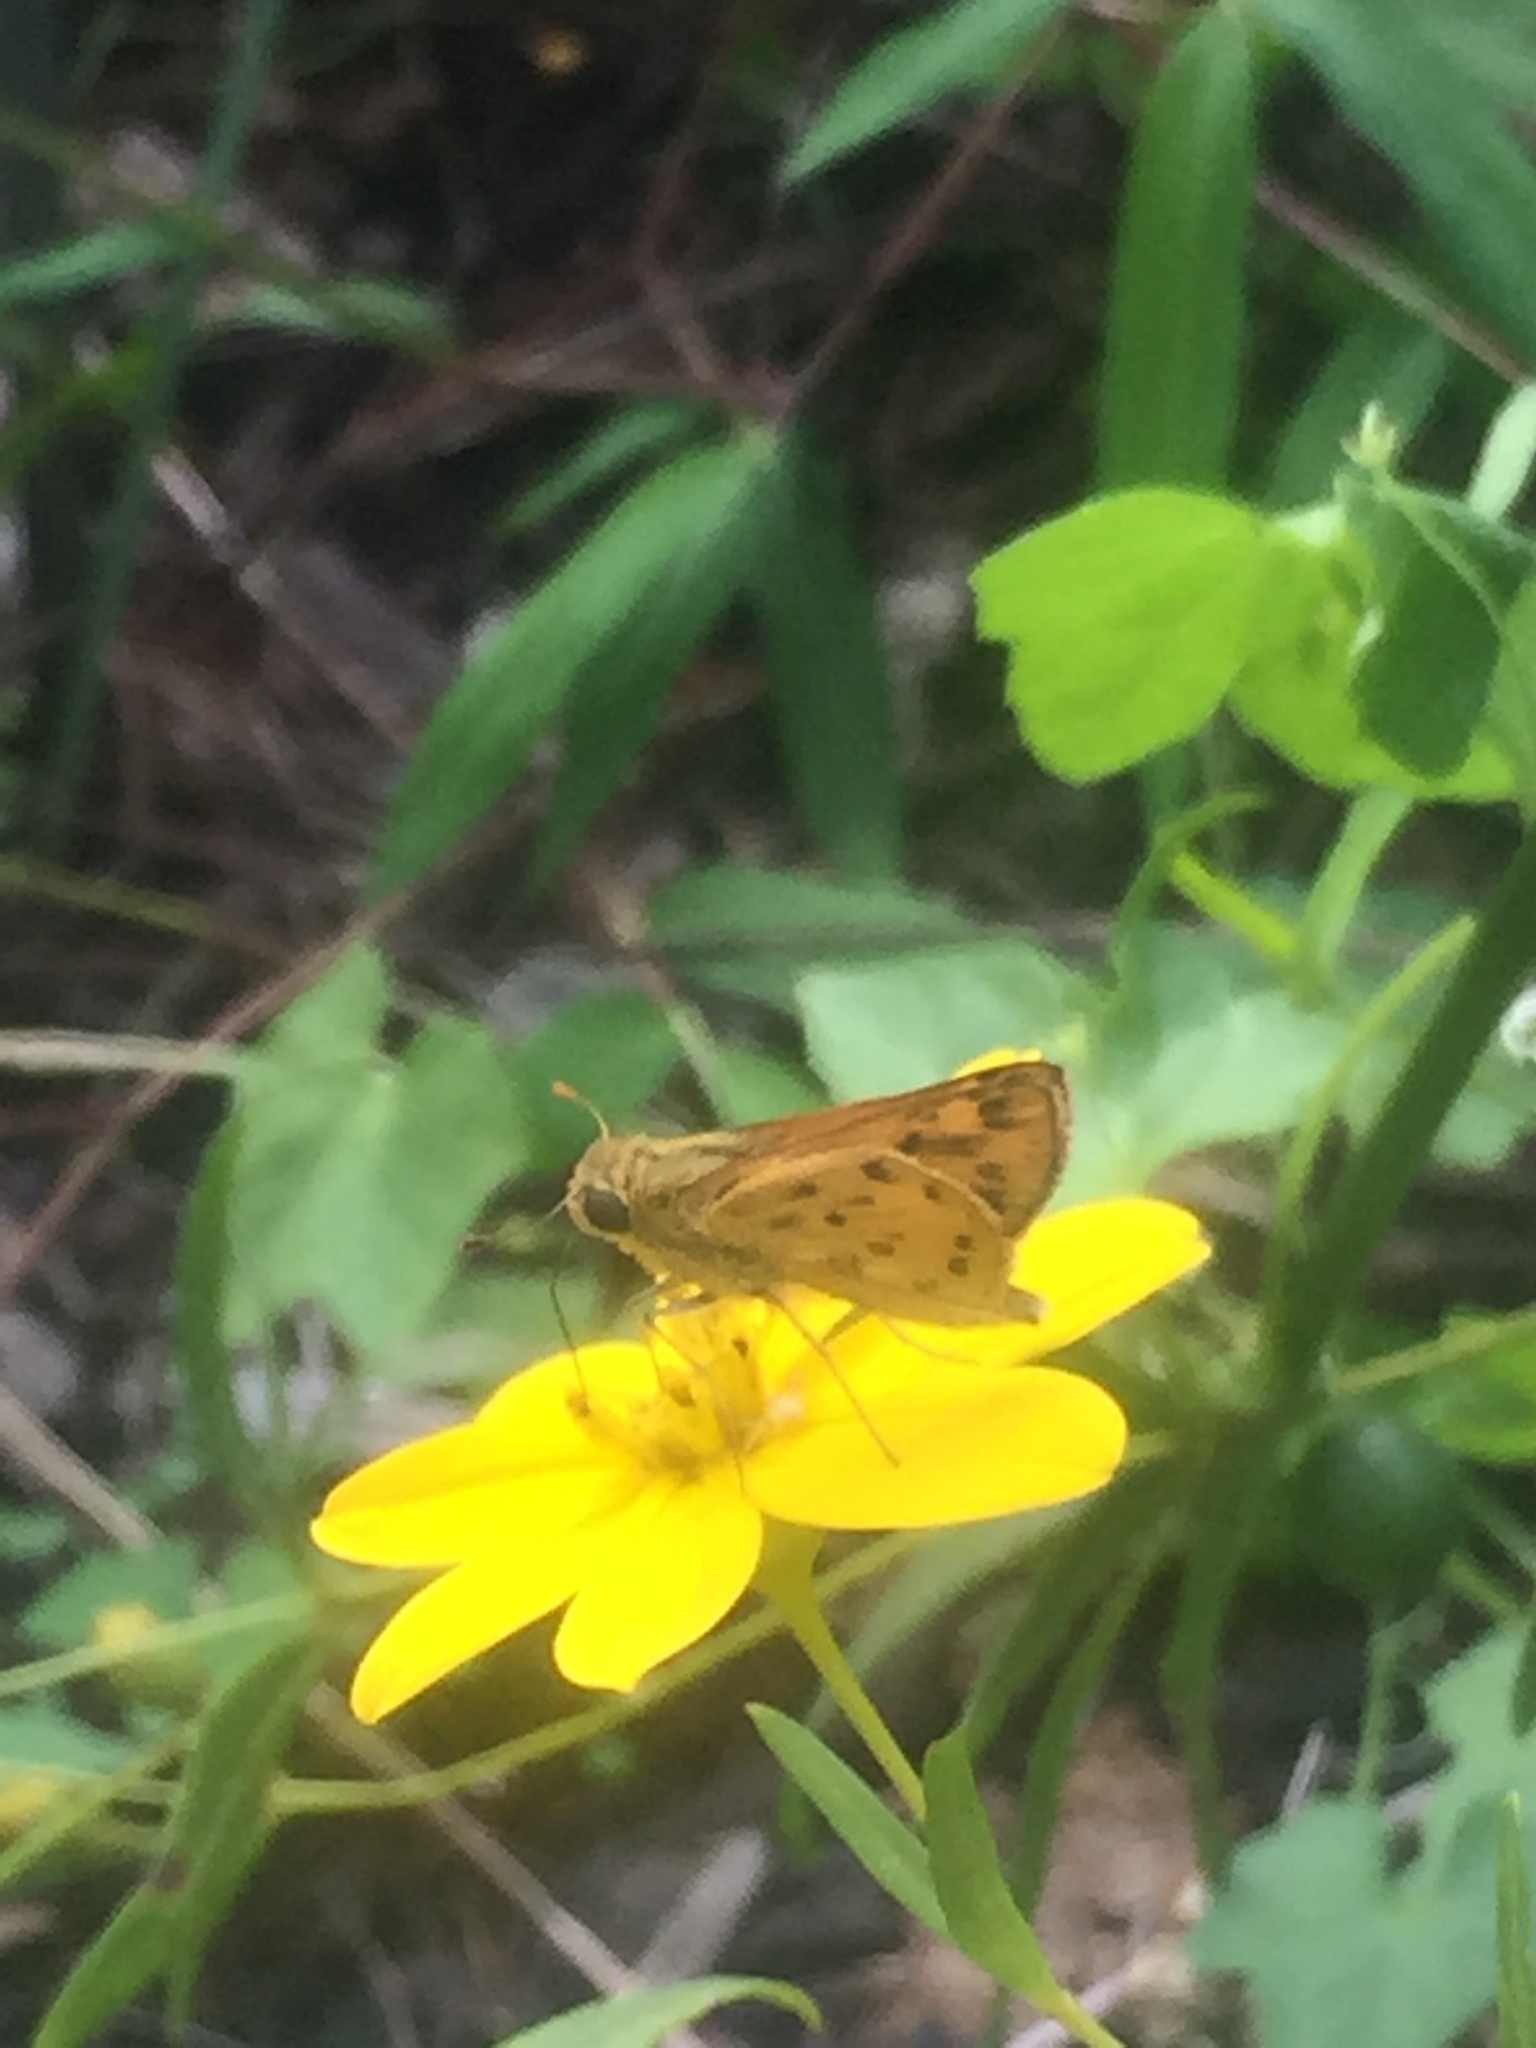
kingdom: Animalia
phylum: Arthropoda
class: Insecta
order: Lepidoptera
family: Hesperiidae
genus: Hylephila
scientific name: Hylephila phyleus
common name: Fiery skipper
